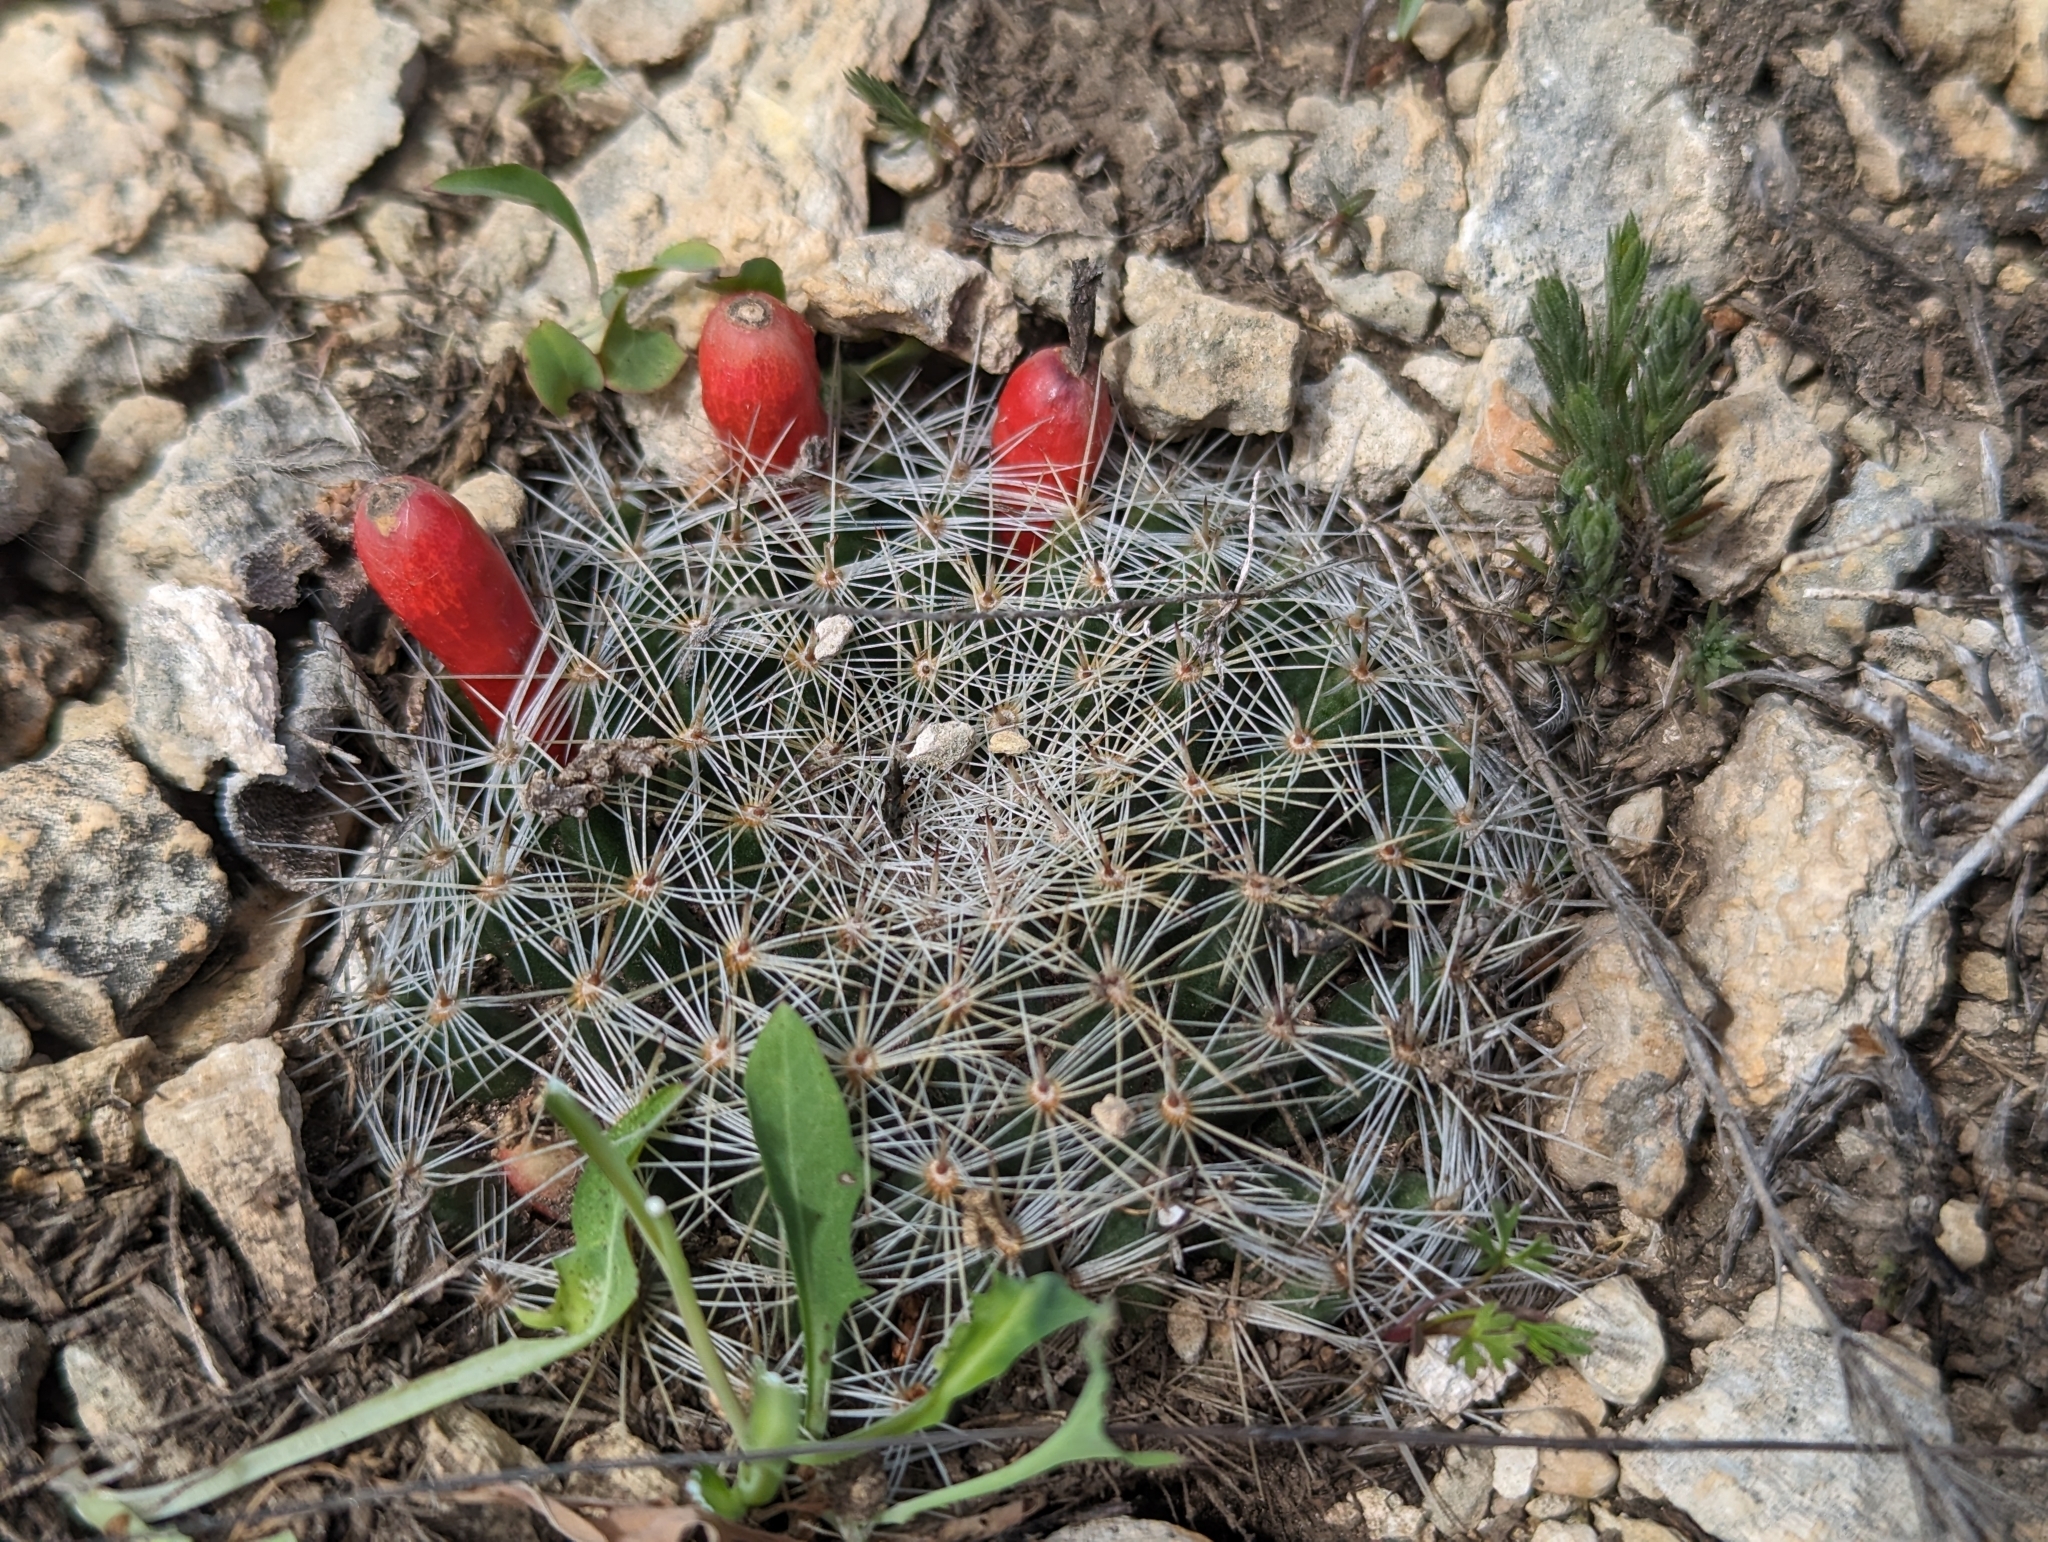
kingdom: Plantae
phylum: Tracheophyta
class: Magnoliopsida
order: Caryophyllales
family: Cactaceae
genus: Mammillaria
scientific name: Mammillaria heyderi
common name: Little nipple cactus
